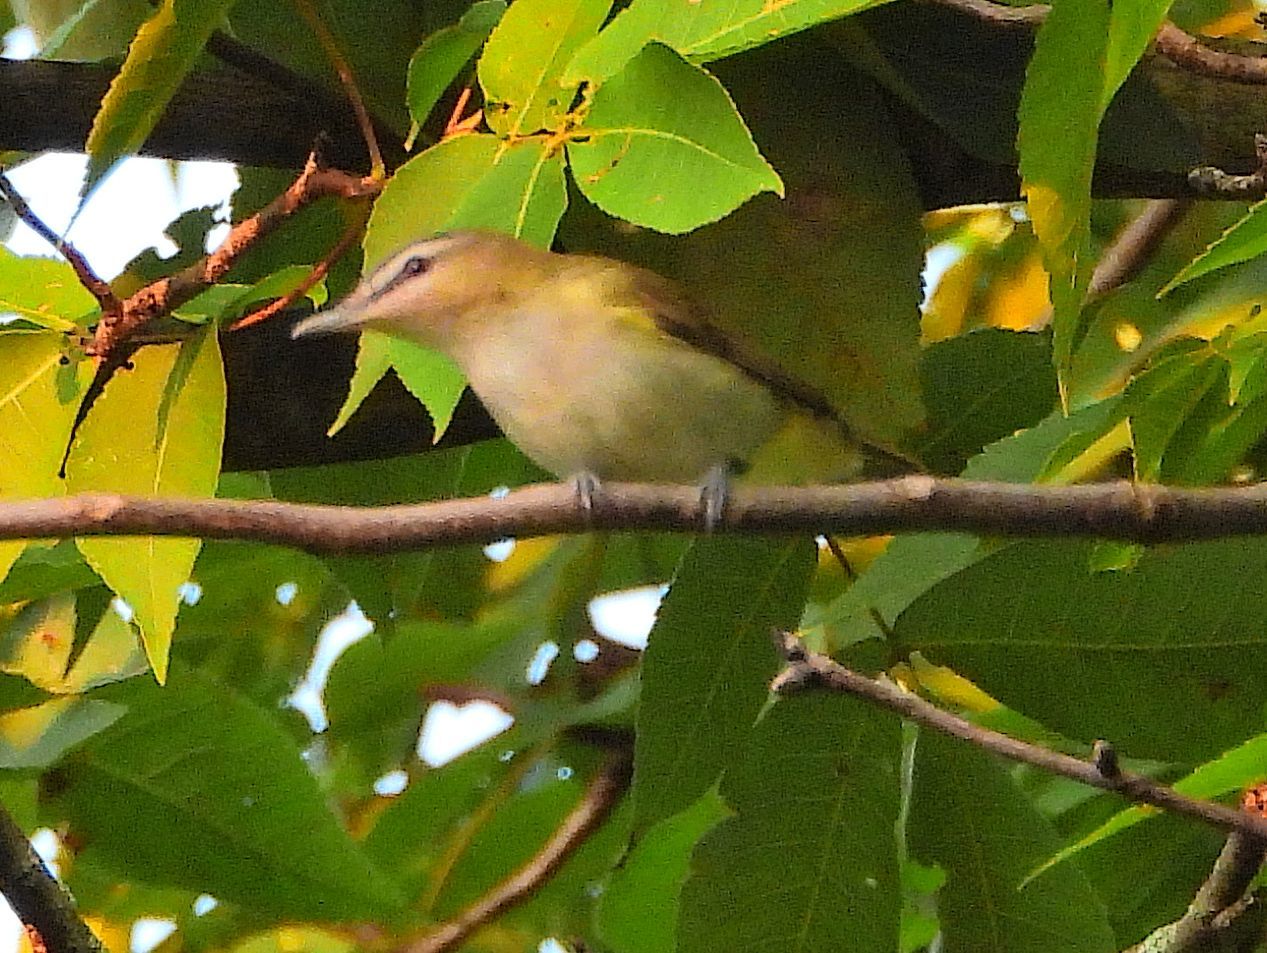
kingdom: Animalia
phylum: Chordata
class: Aves
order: Passeriformes
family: Vireonidae
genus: Vireo
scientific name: Vireo olivaceus
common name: Red-eyed vireo
